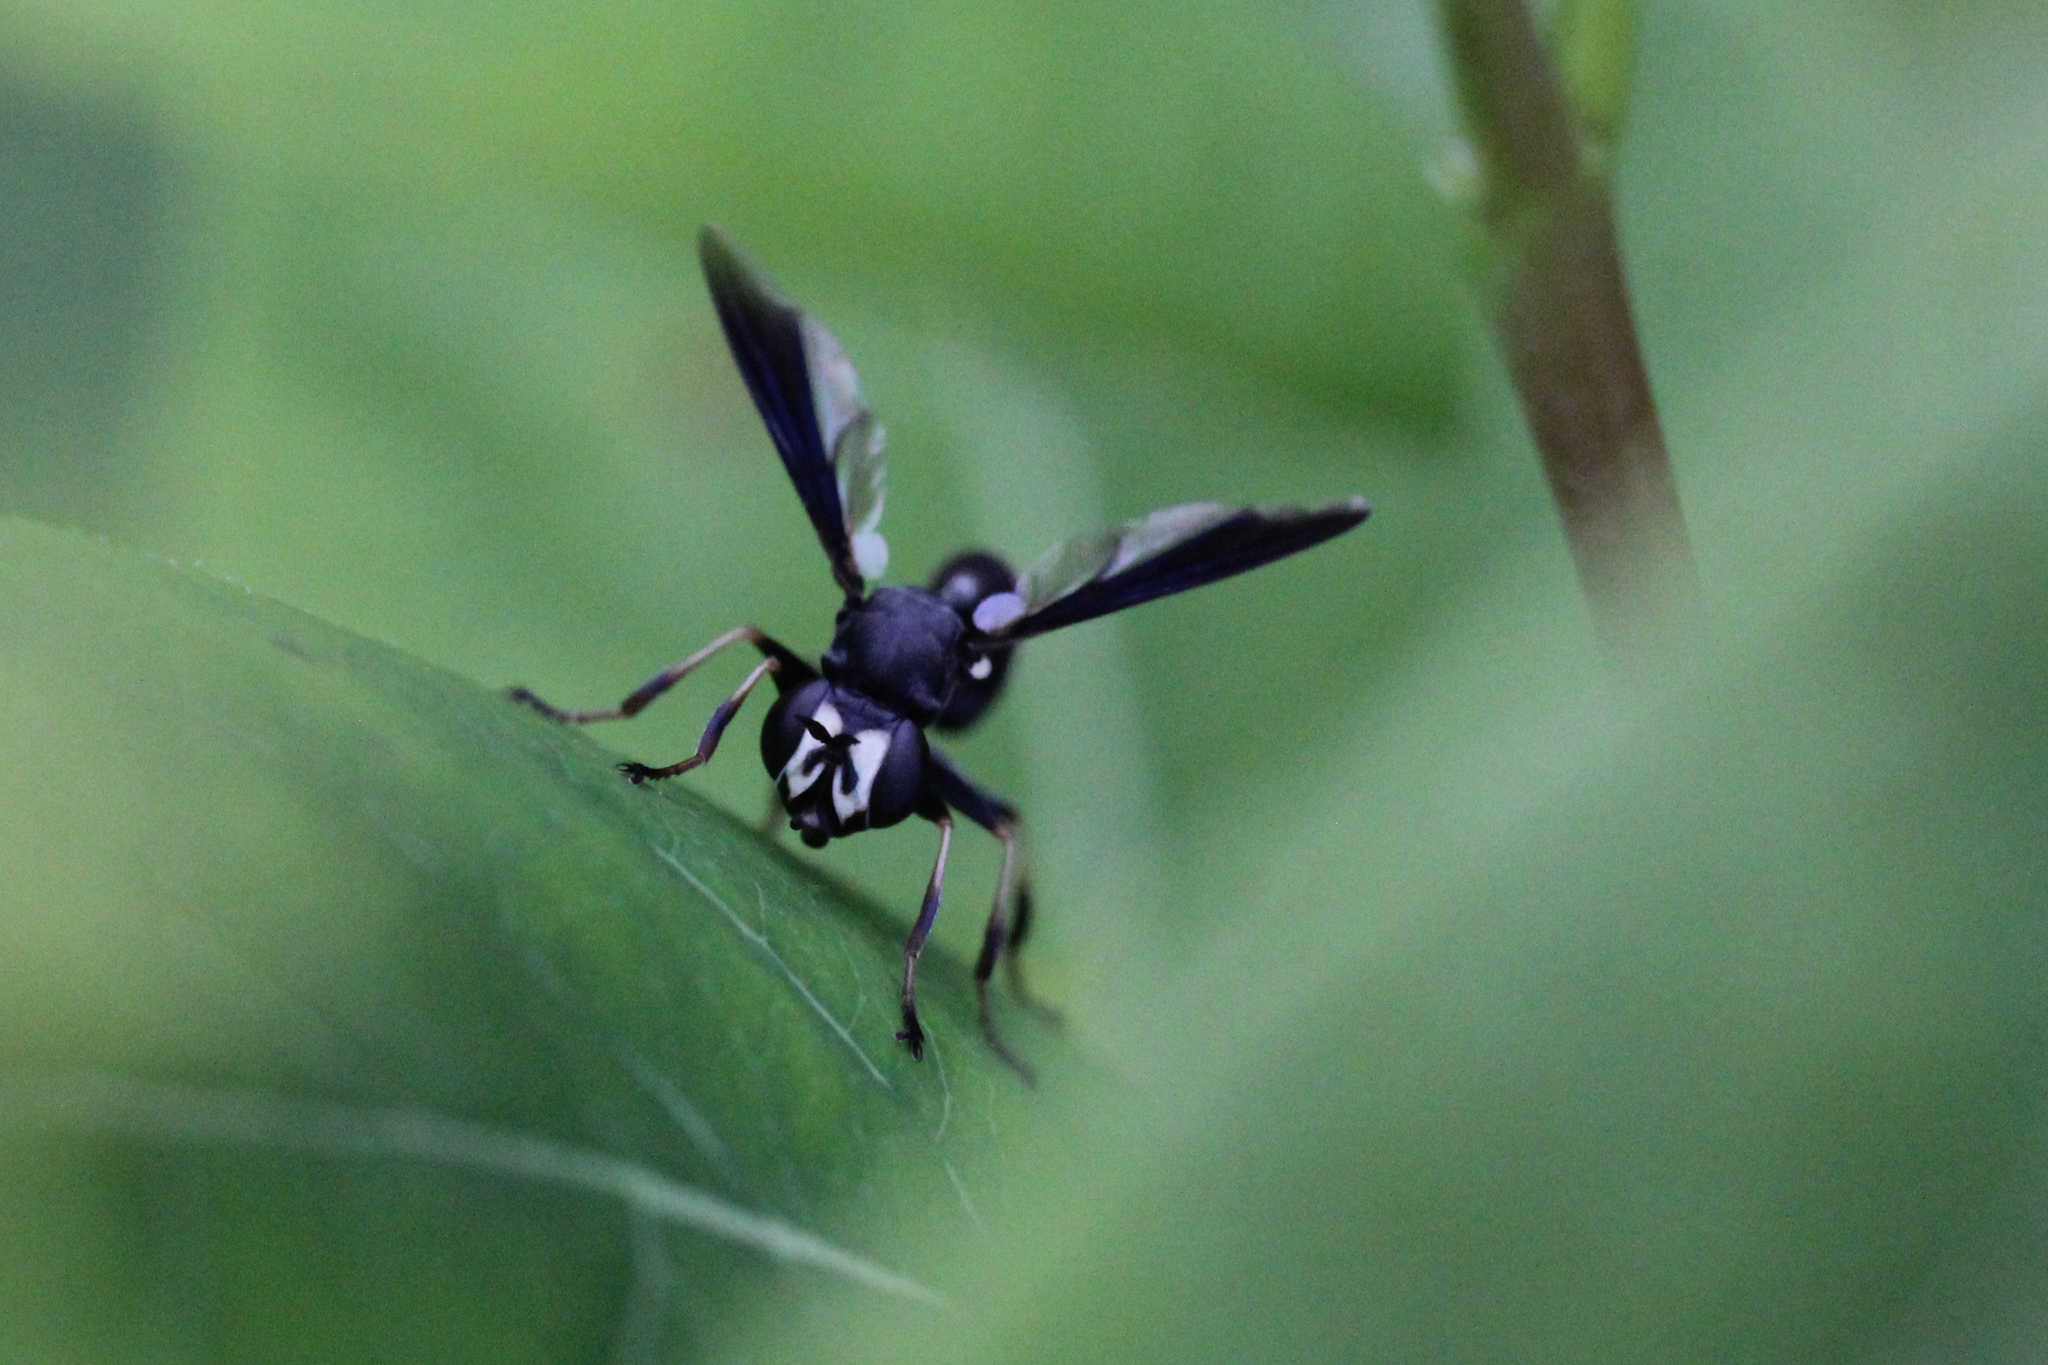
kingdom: Animalia
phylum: Arthropoda
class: Insecta
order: Diptera
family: Conopidae
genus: Physocephala
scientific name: Physocephala tibialis
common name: Common eastern physocephala
